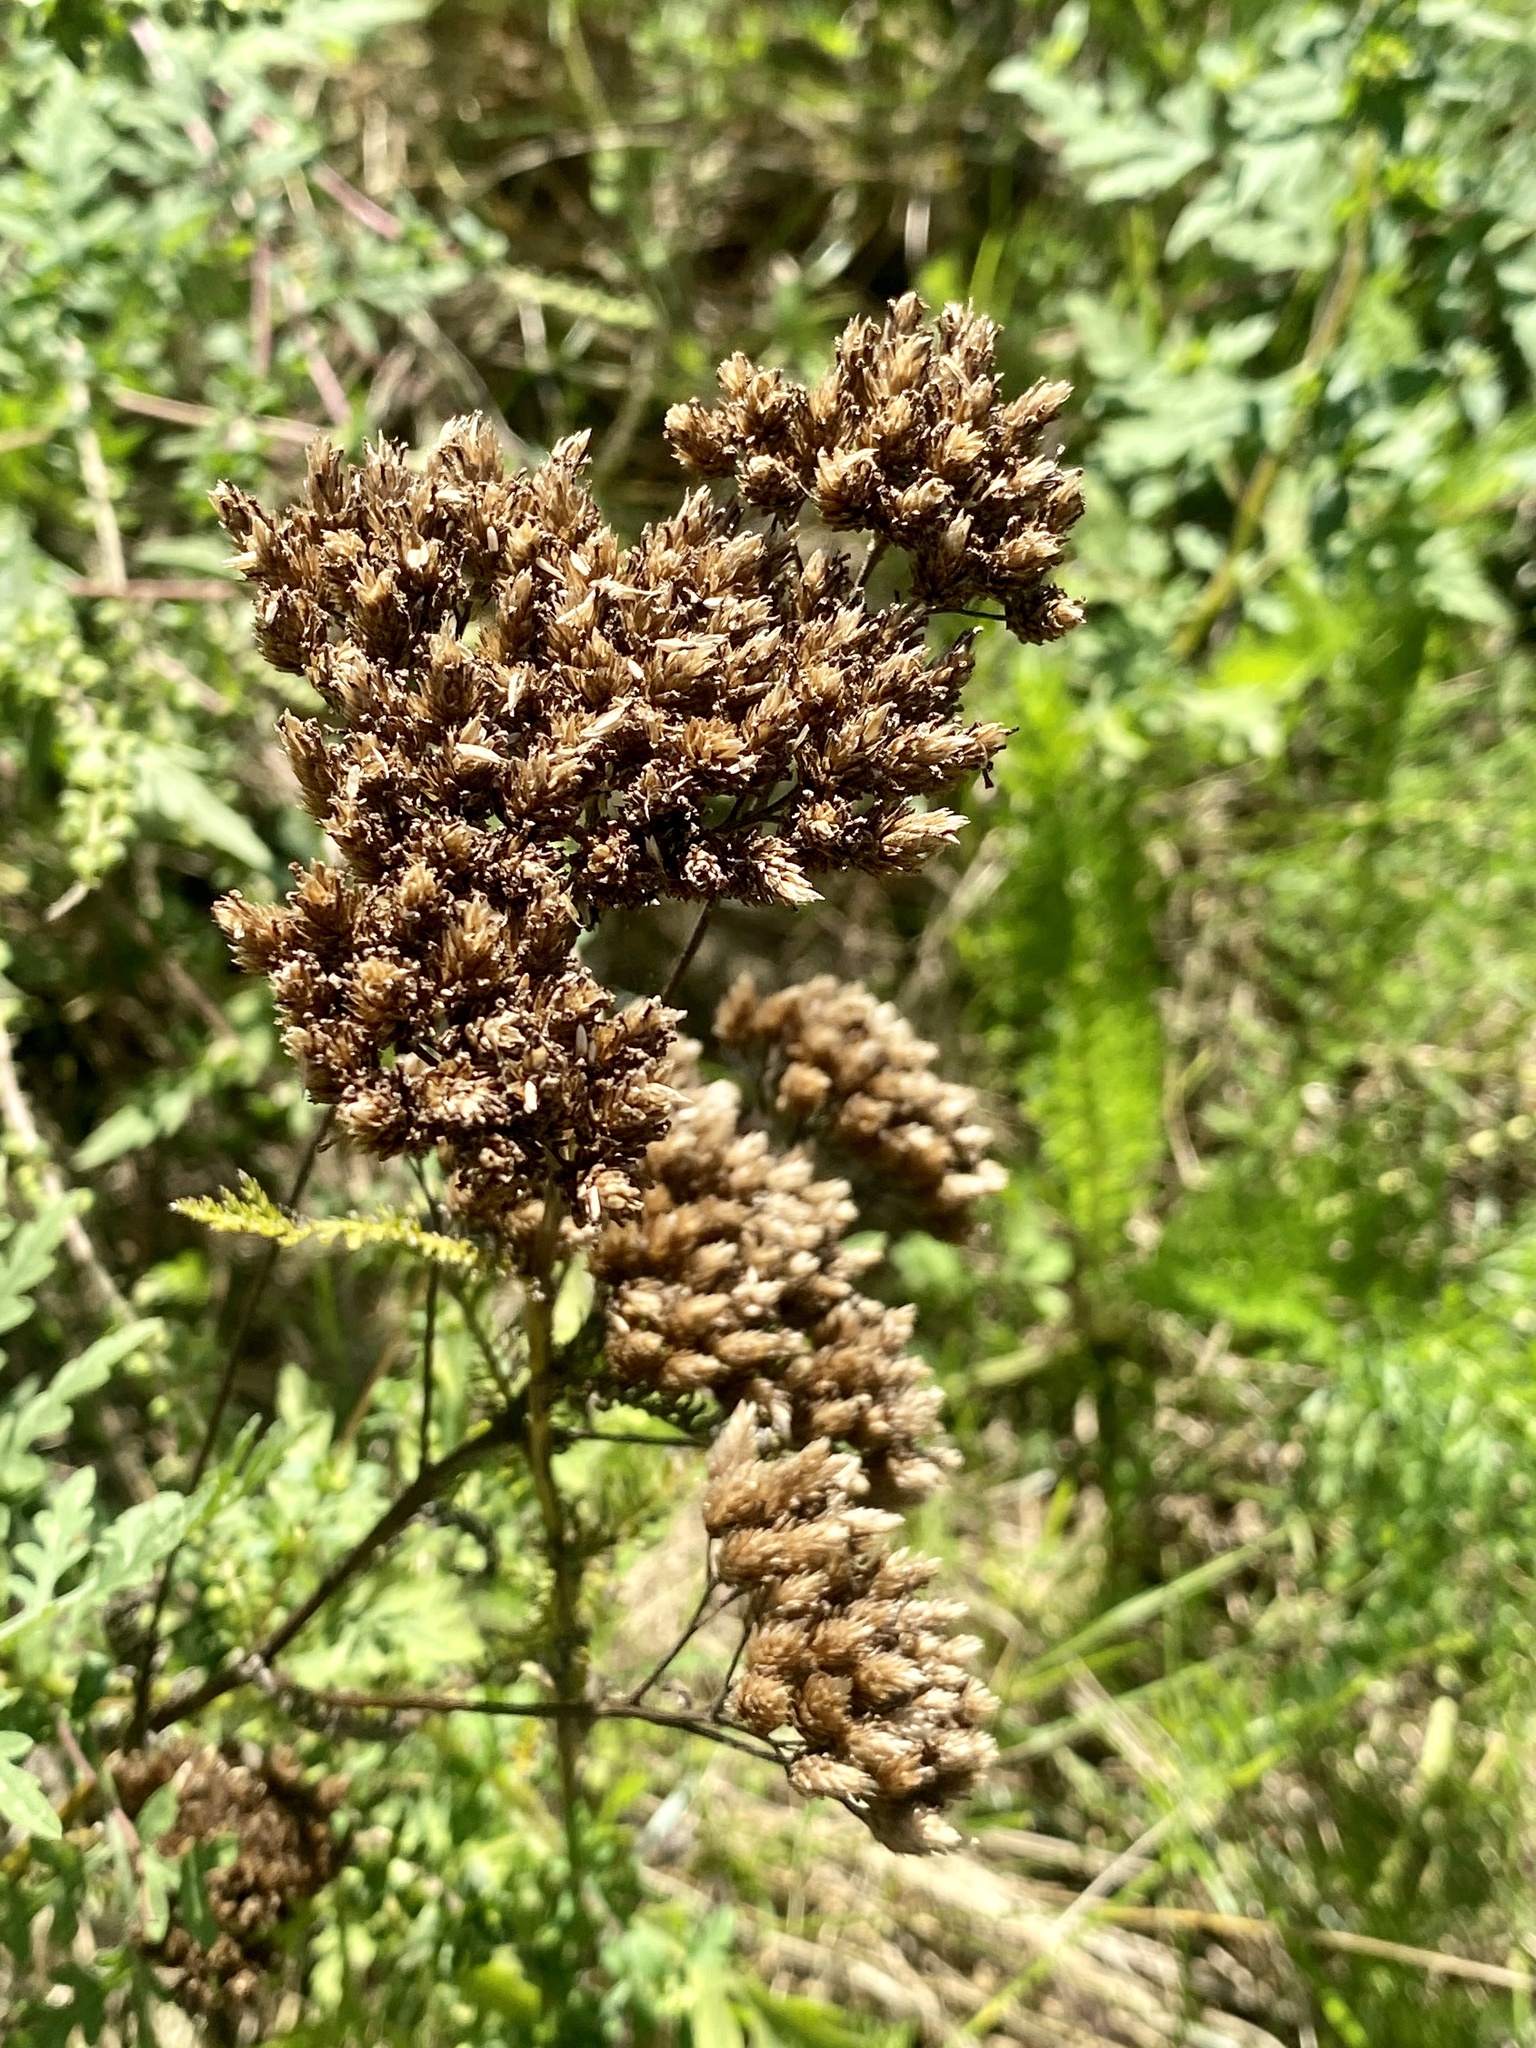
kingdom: Plantae
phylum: Tracheophyta
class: Magnoliopsida
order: Asterales
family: Asteraceae
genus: Achillea
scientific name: Achillea millefolium
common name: Yarrow
